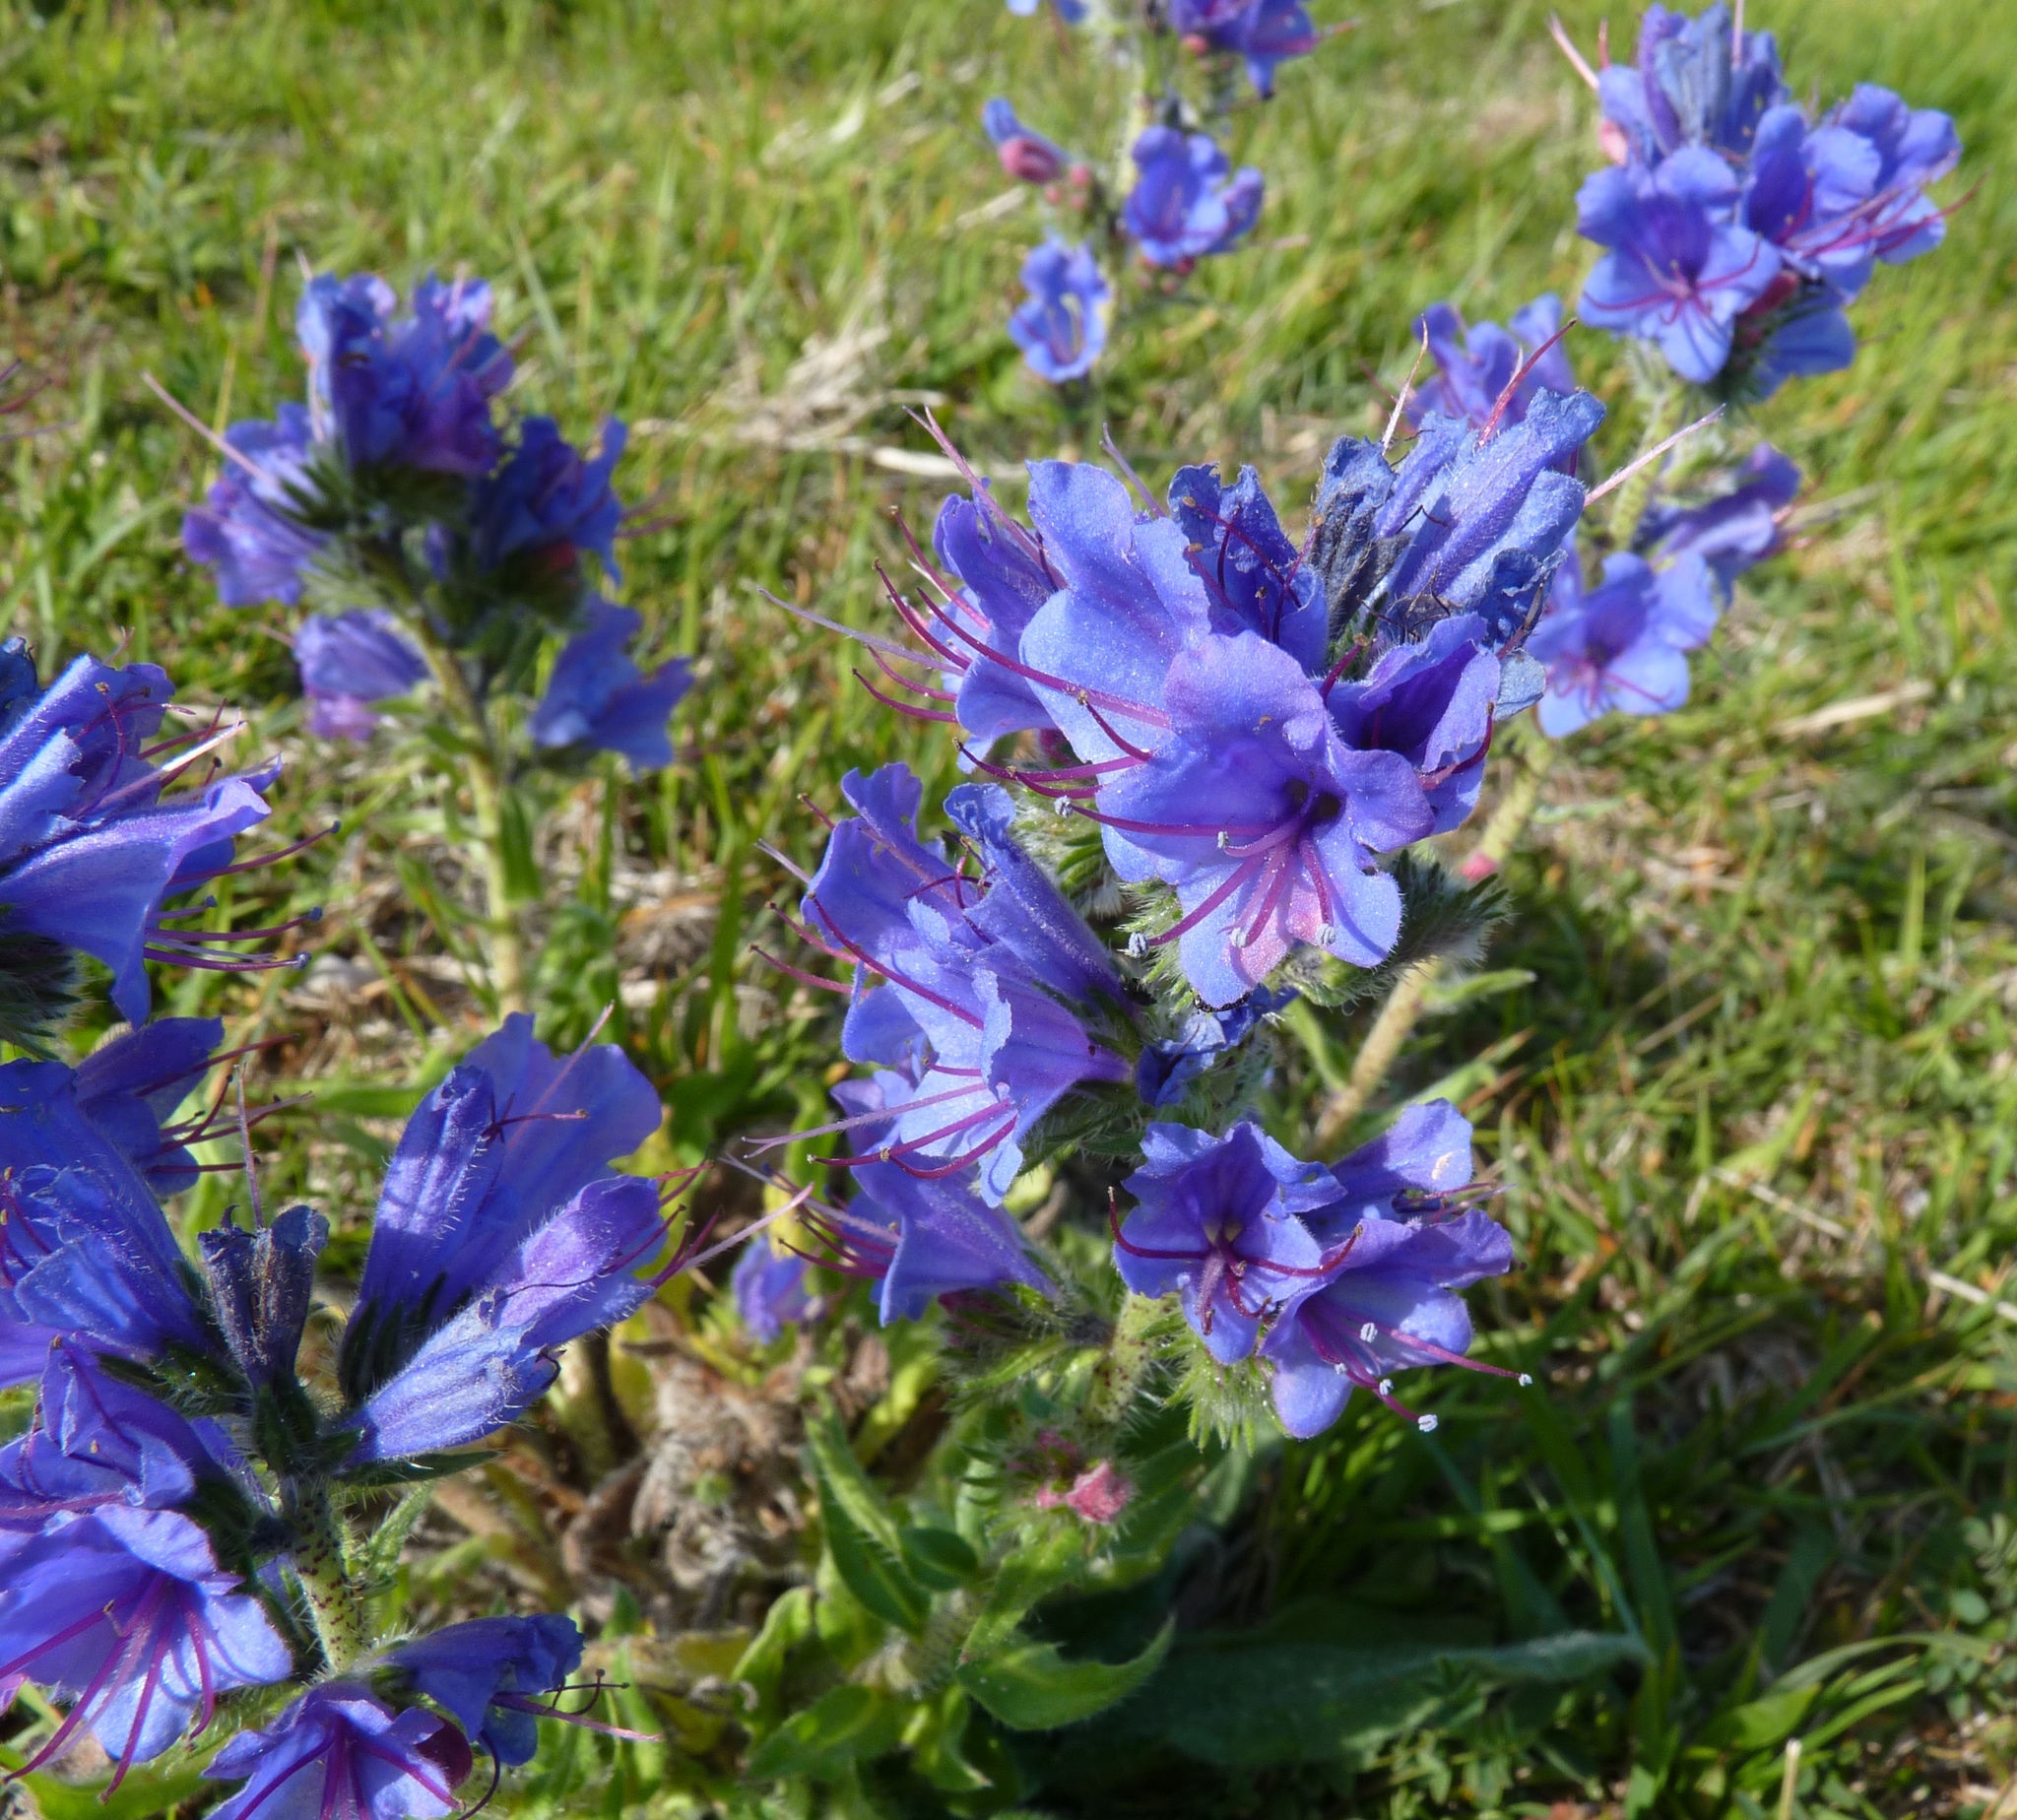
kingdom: Plantae
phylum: Tracheophyta
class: Magnoliopsida
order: Boraginales
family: Boraginaceae
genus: Echium
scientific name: Echium vulgare
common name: Common viper's bugloss
